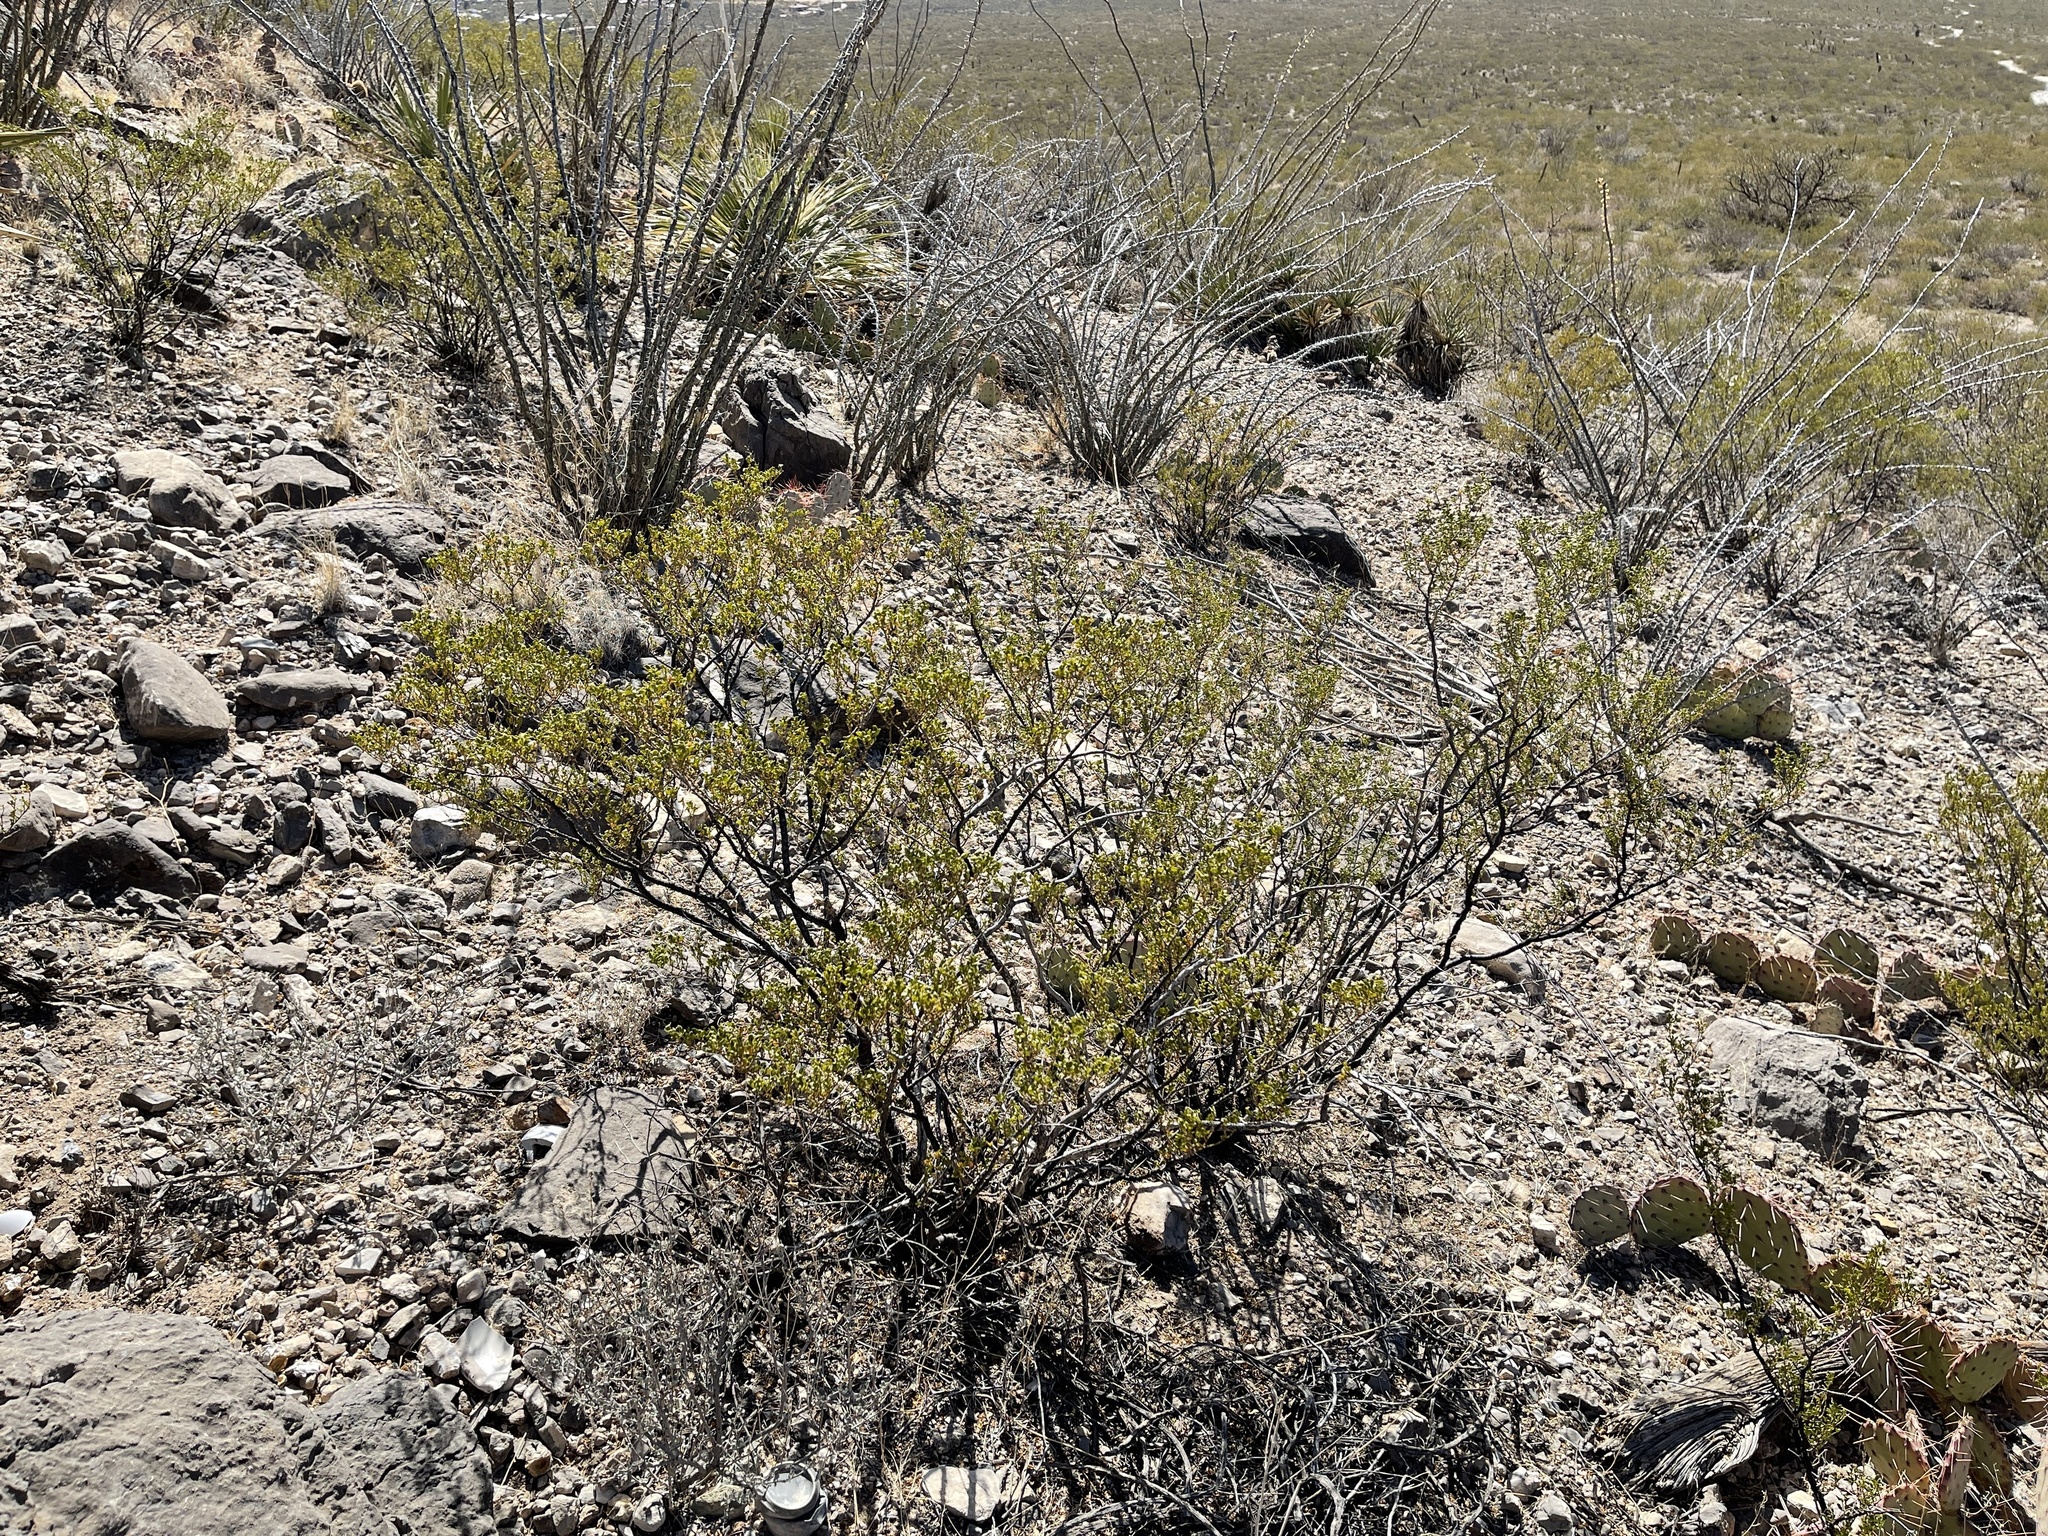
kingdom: Plantae
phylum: Tracheophyta
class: Magnoliopsida
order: Zygophyllales
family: Zygophyllaceae
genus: Larrea
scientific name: Larrea tridentata
